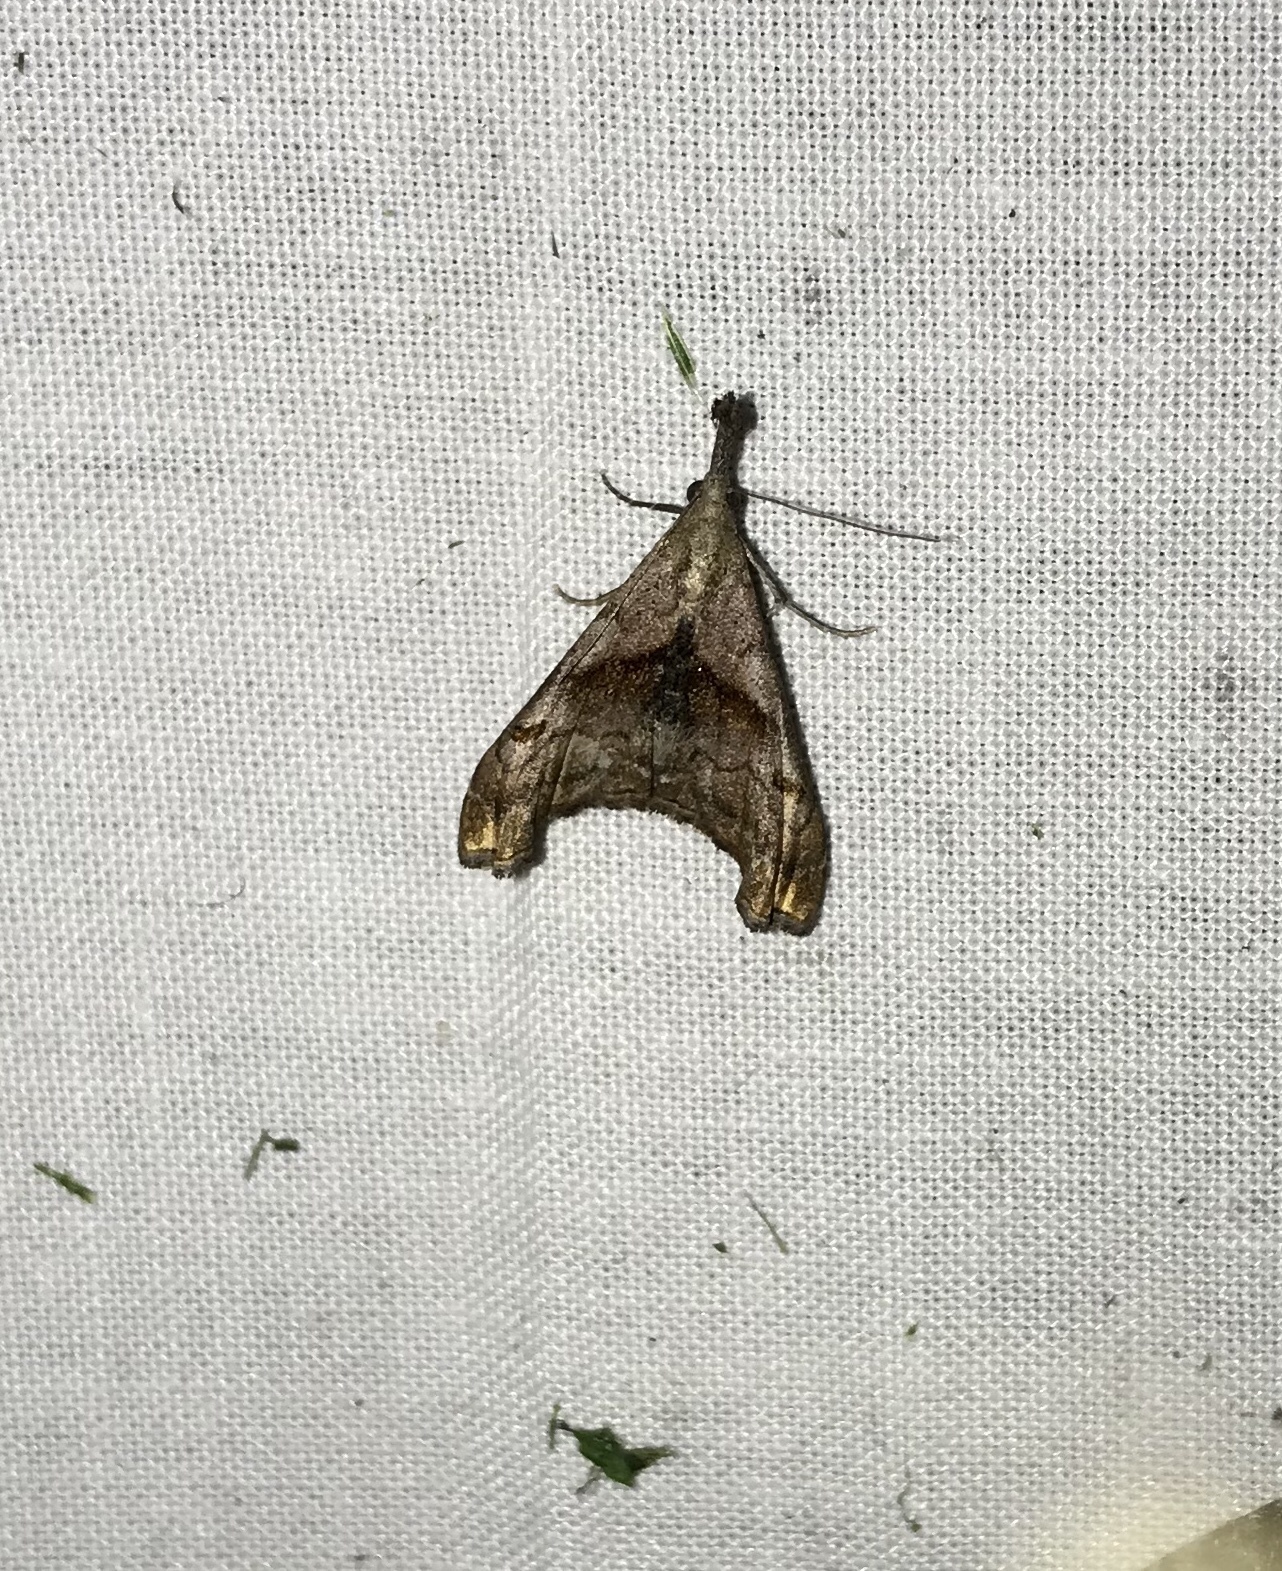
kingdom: Animalia
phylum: Arthropoda
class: Insecta
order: Lepidoptera
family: Erebidae
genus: Palthis
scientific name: Palthis angulalis
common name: Dark-spotted palthis moth
